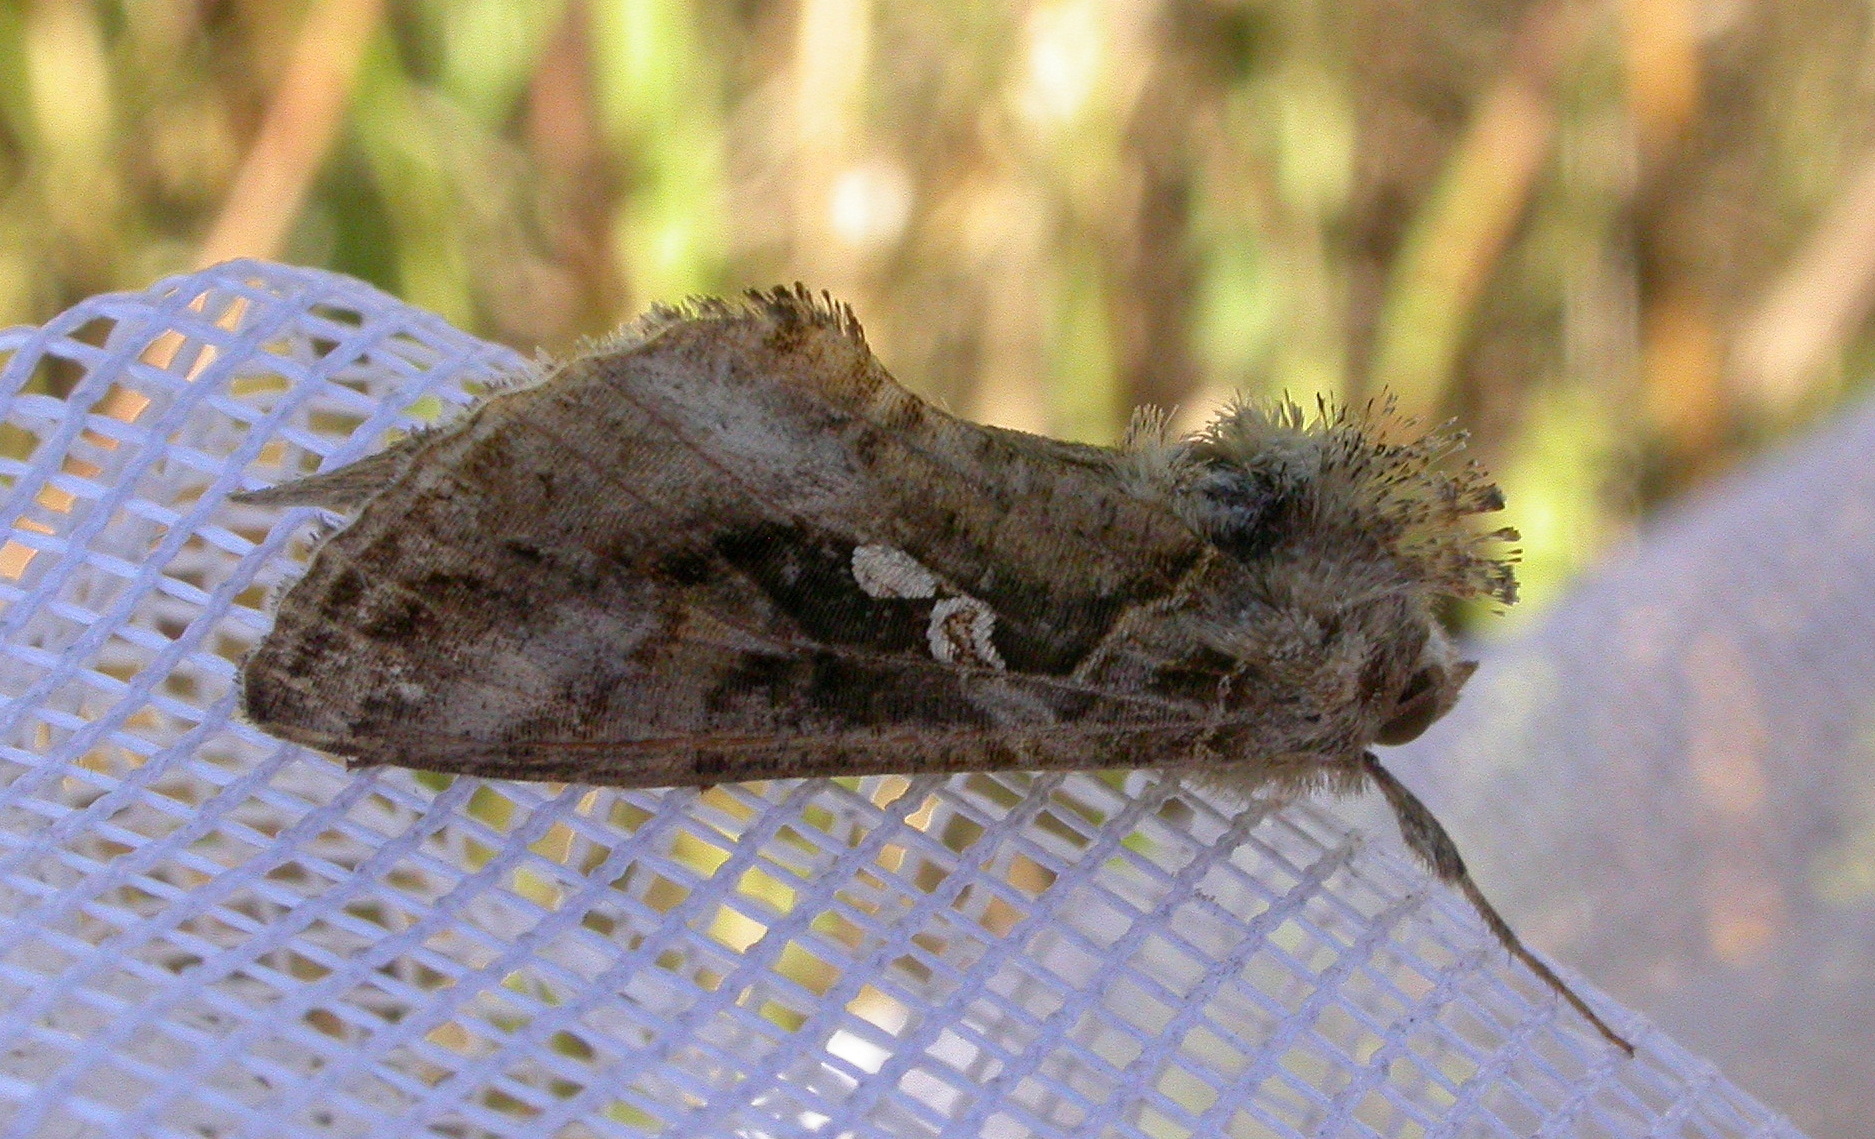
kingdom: Animalia
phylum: Arthropoda
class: Insecta
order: Lepidoptera
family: Noctuidae
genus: Chrysodeixis
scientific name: Chrysodeixis includens
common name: Cutworm moth
